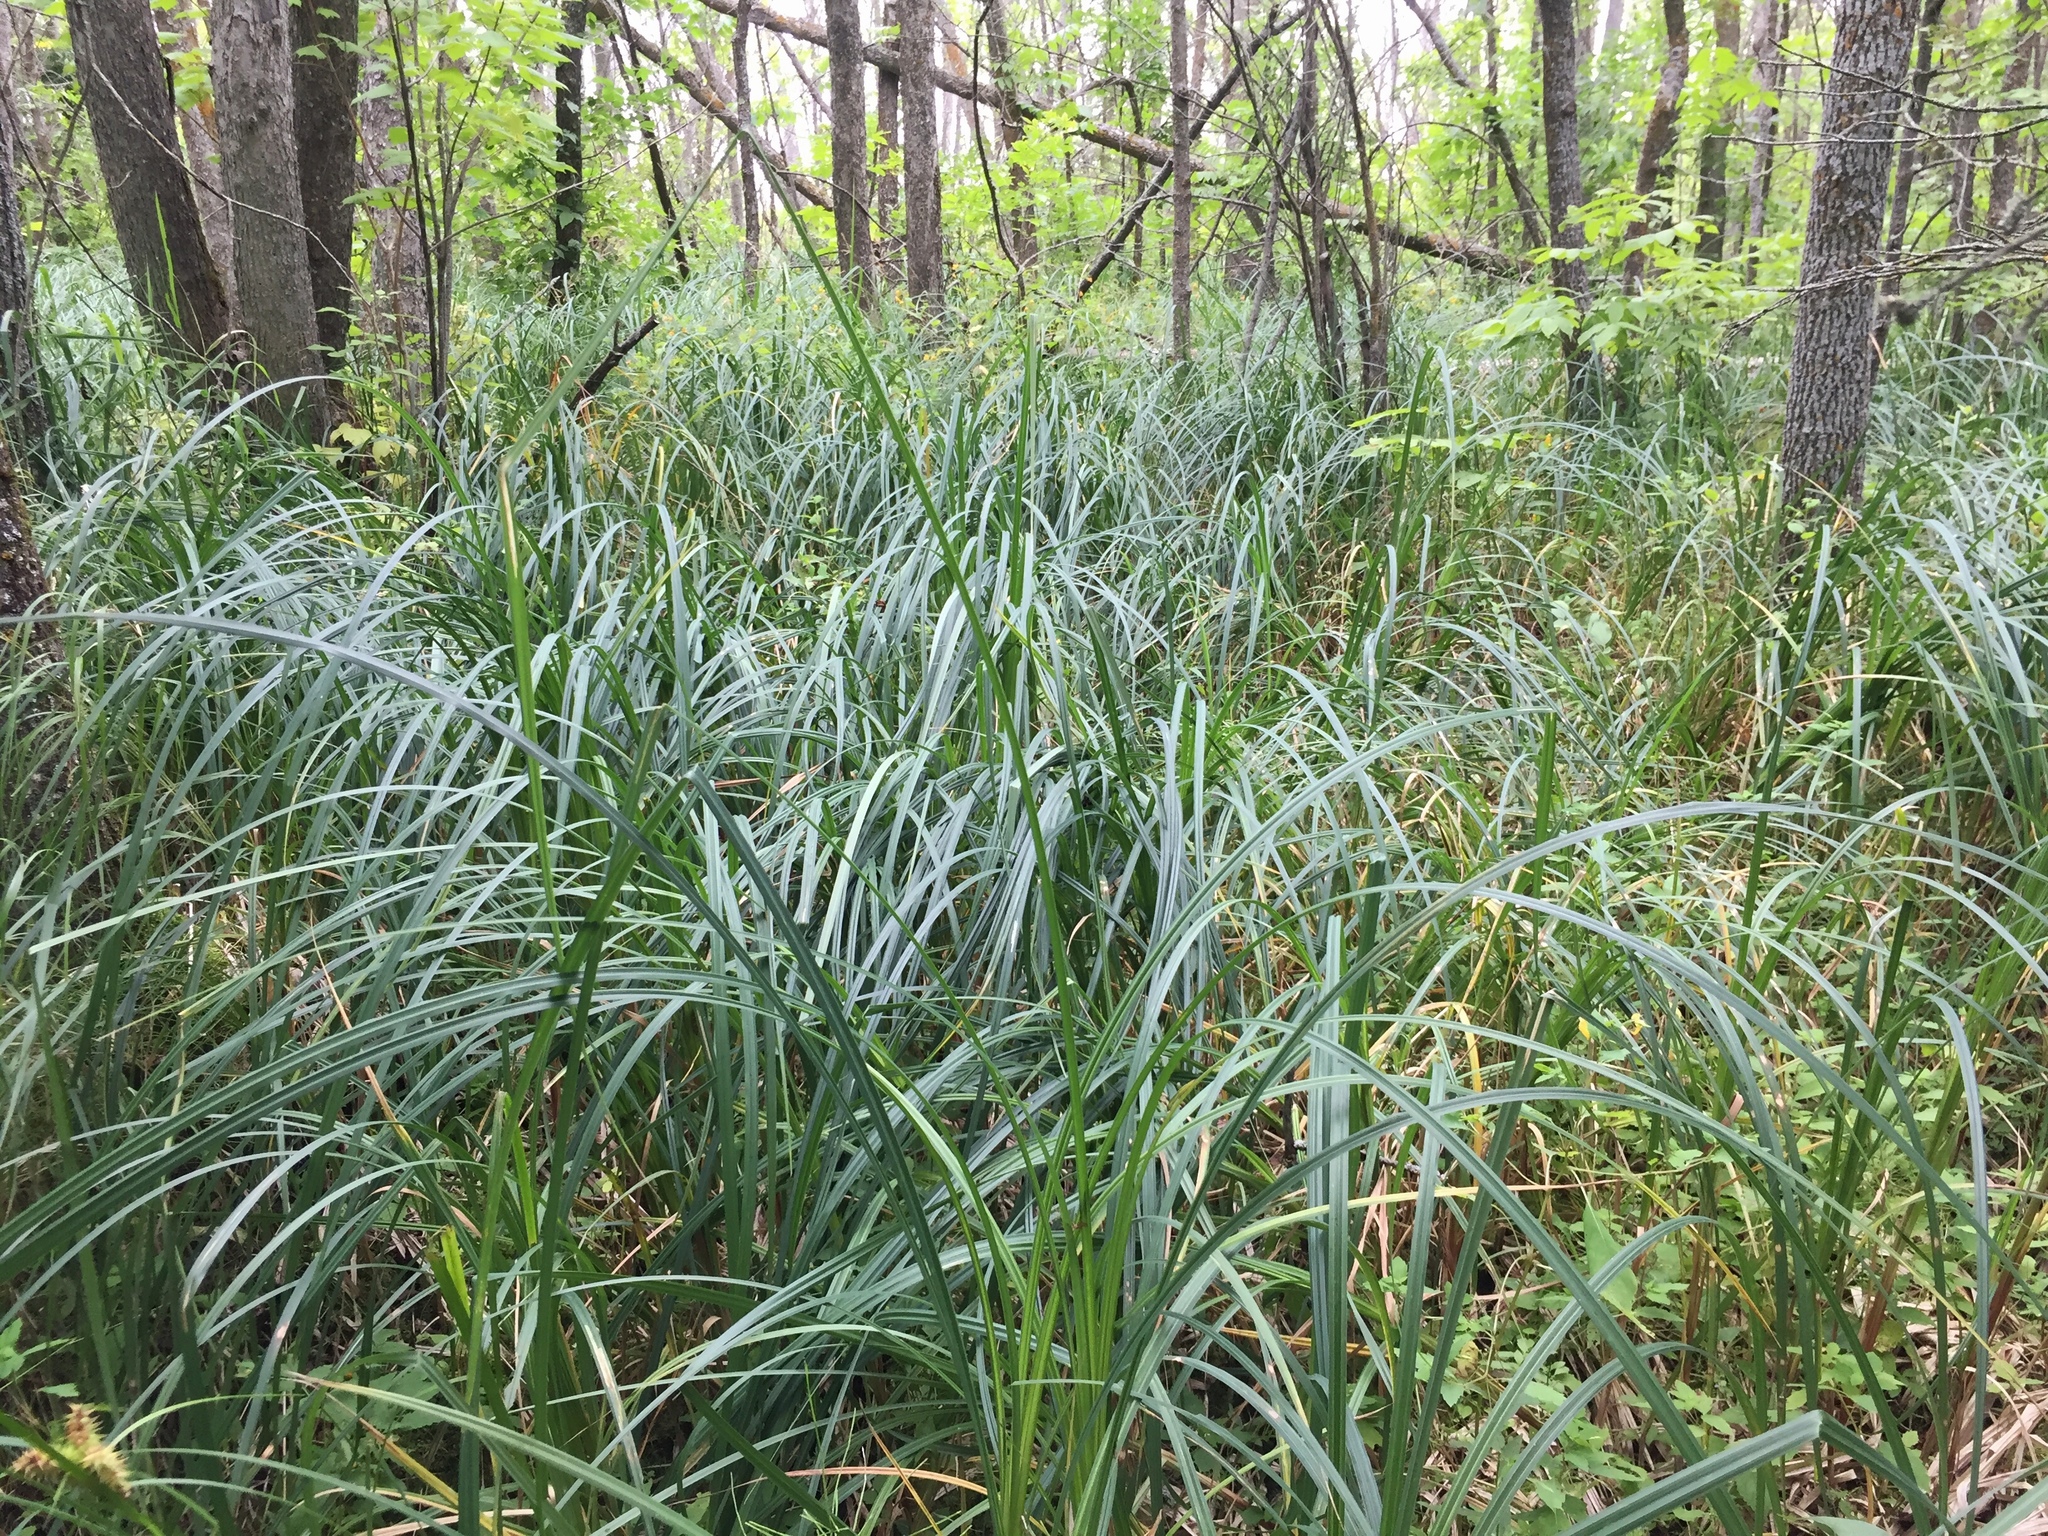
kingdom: Plantae
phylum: Tracheophyta
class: Liliopsida
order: Poales
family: Cyperaceae
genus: Carex
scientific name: Carex retrorsa
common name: Knot-sheath sedge
